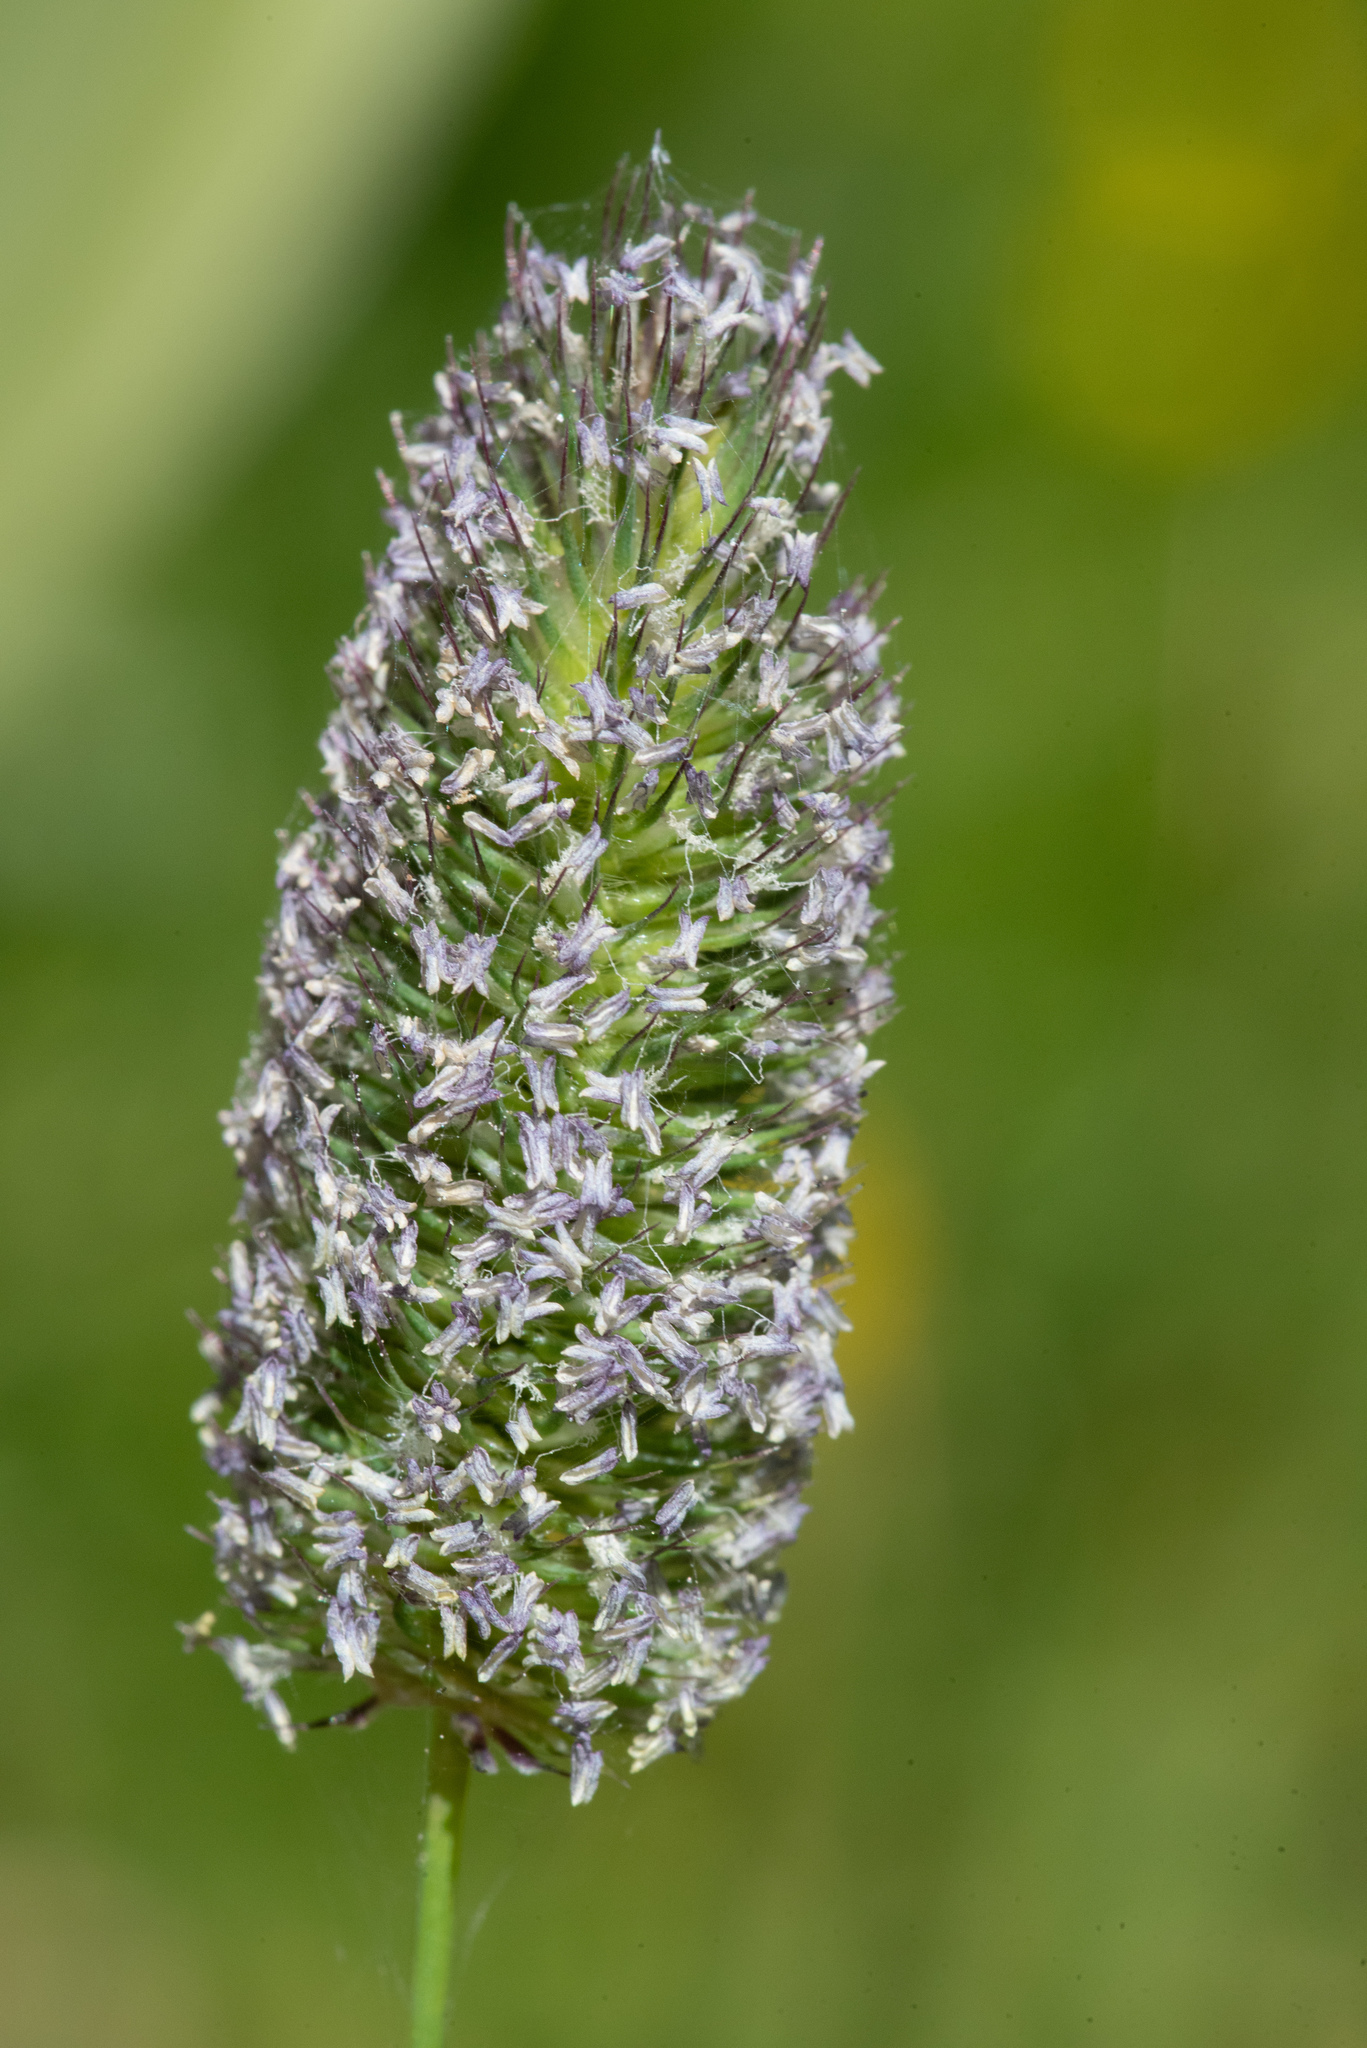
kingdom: Plantae
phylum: Tracheophyta
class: Liliopsida
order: Poales
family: Poaceae
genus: Phleum
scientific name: Phleum alpinum
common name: Alpine cat's-tail
